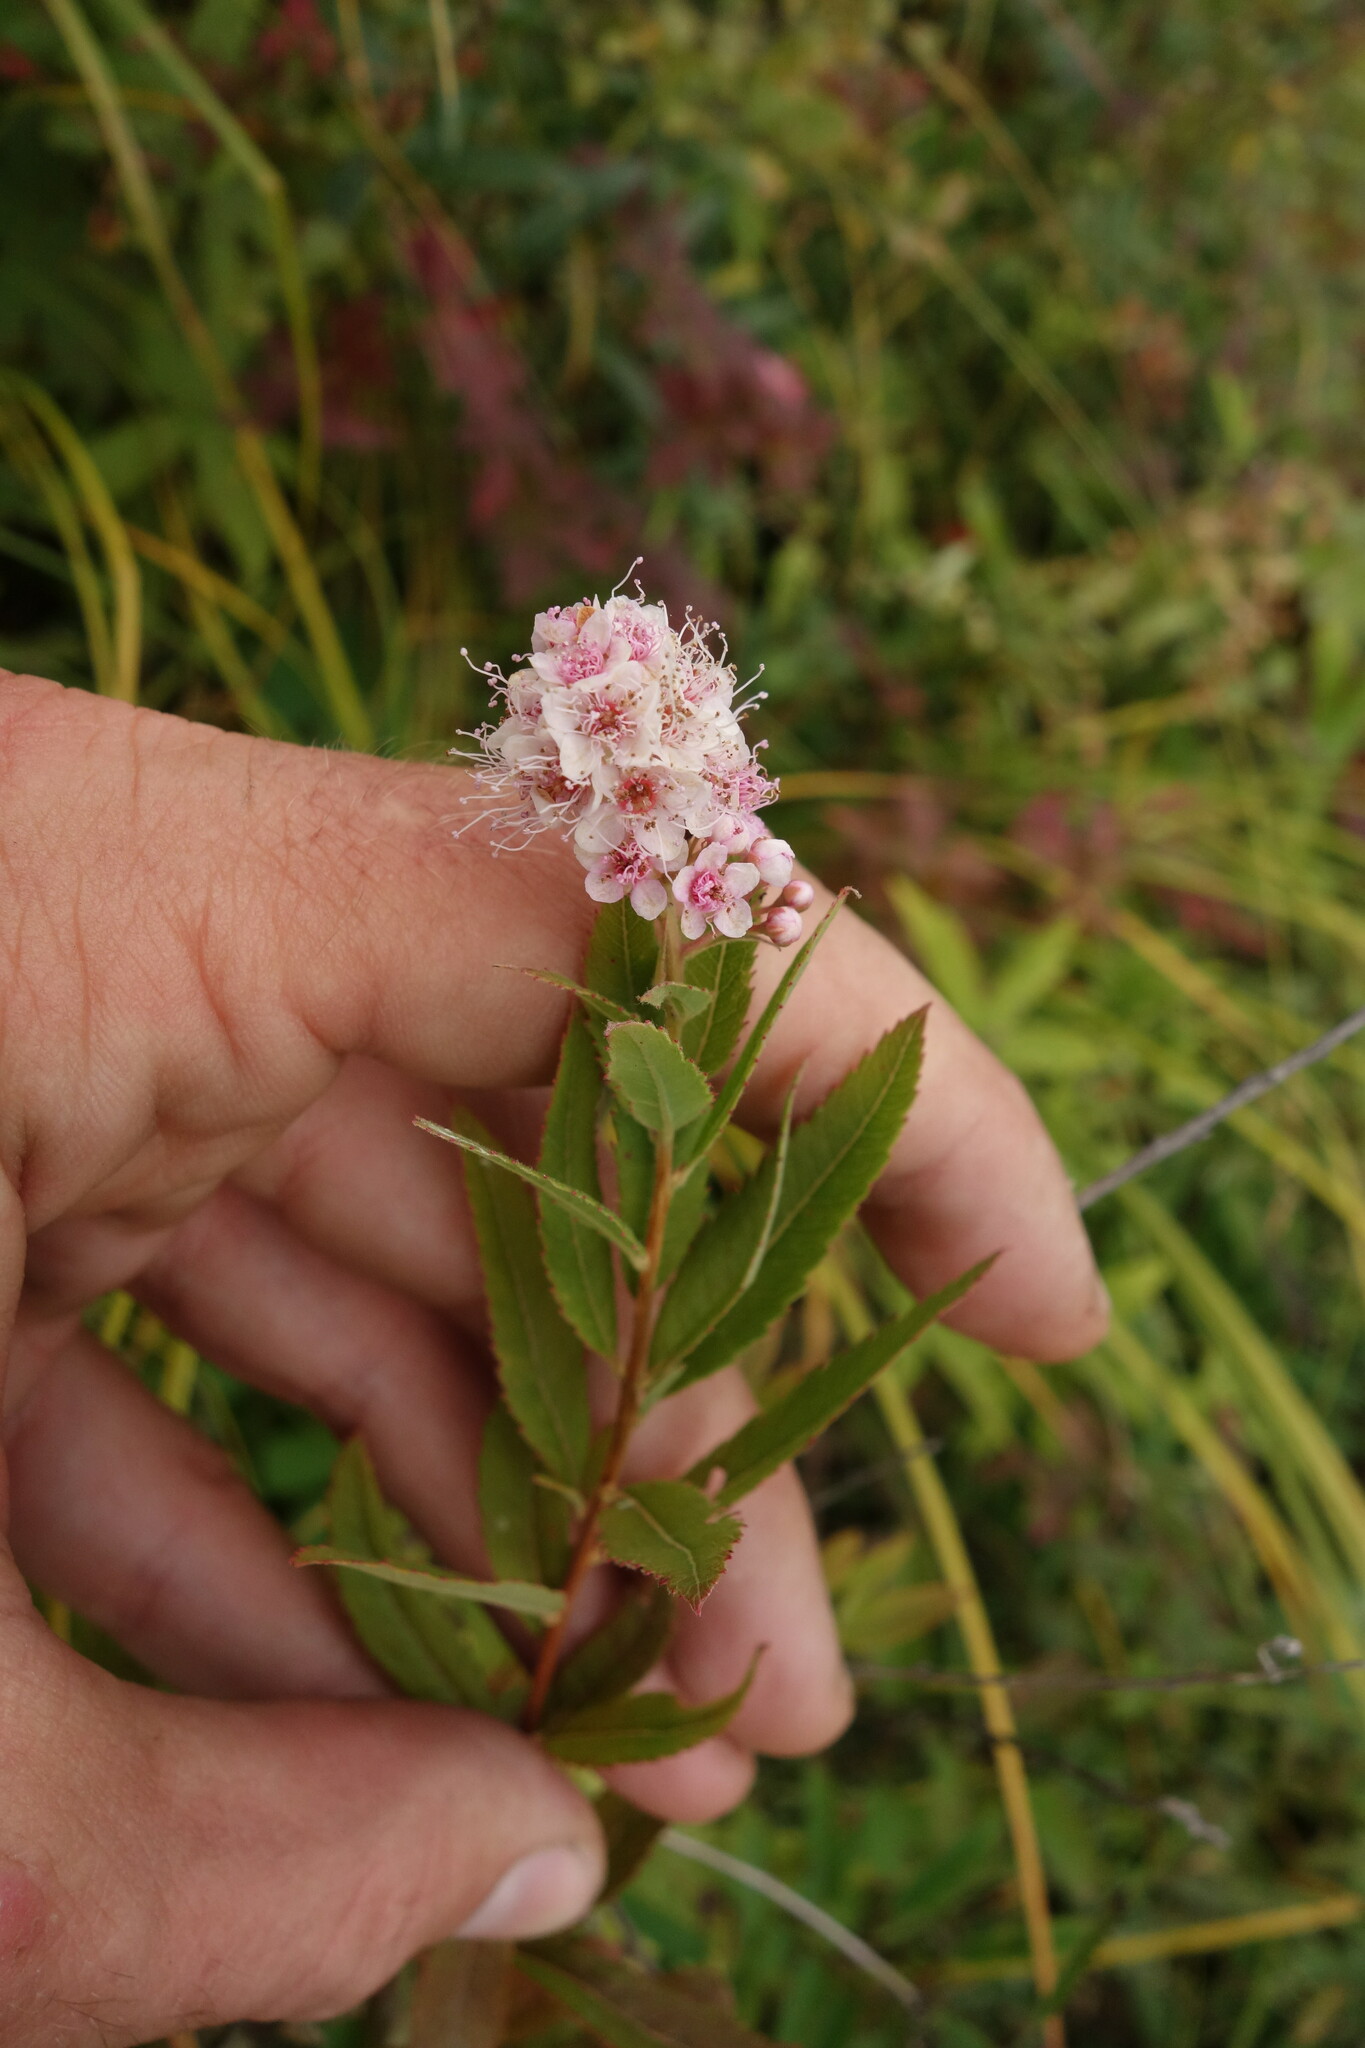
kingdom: Plantae
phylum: Tracheophyta
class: Magnoliopsida
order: Rosales
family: Rosaceae
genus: Spiraea
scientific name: Spiraea salicifolia
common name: Bridewort
